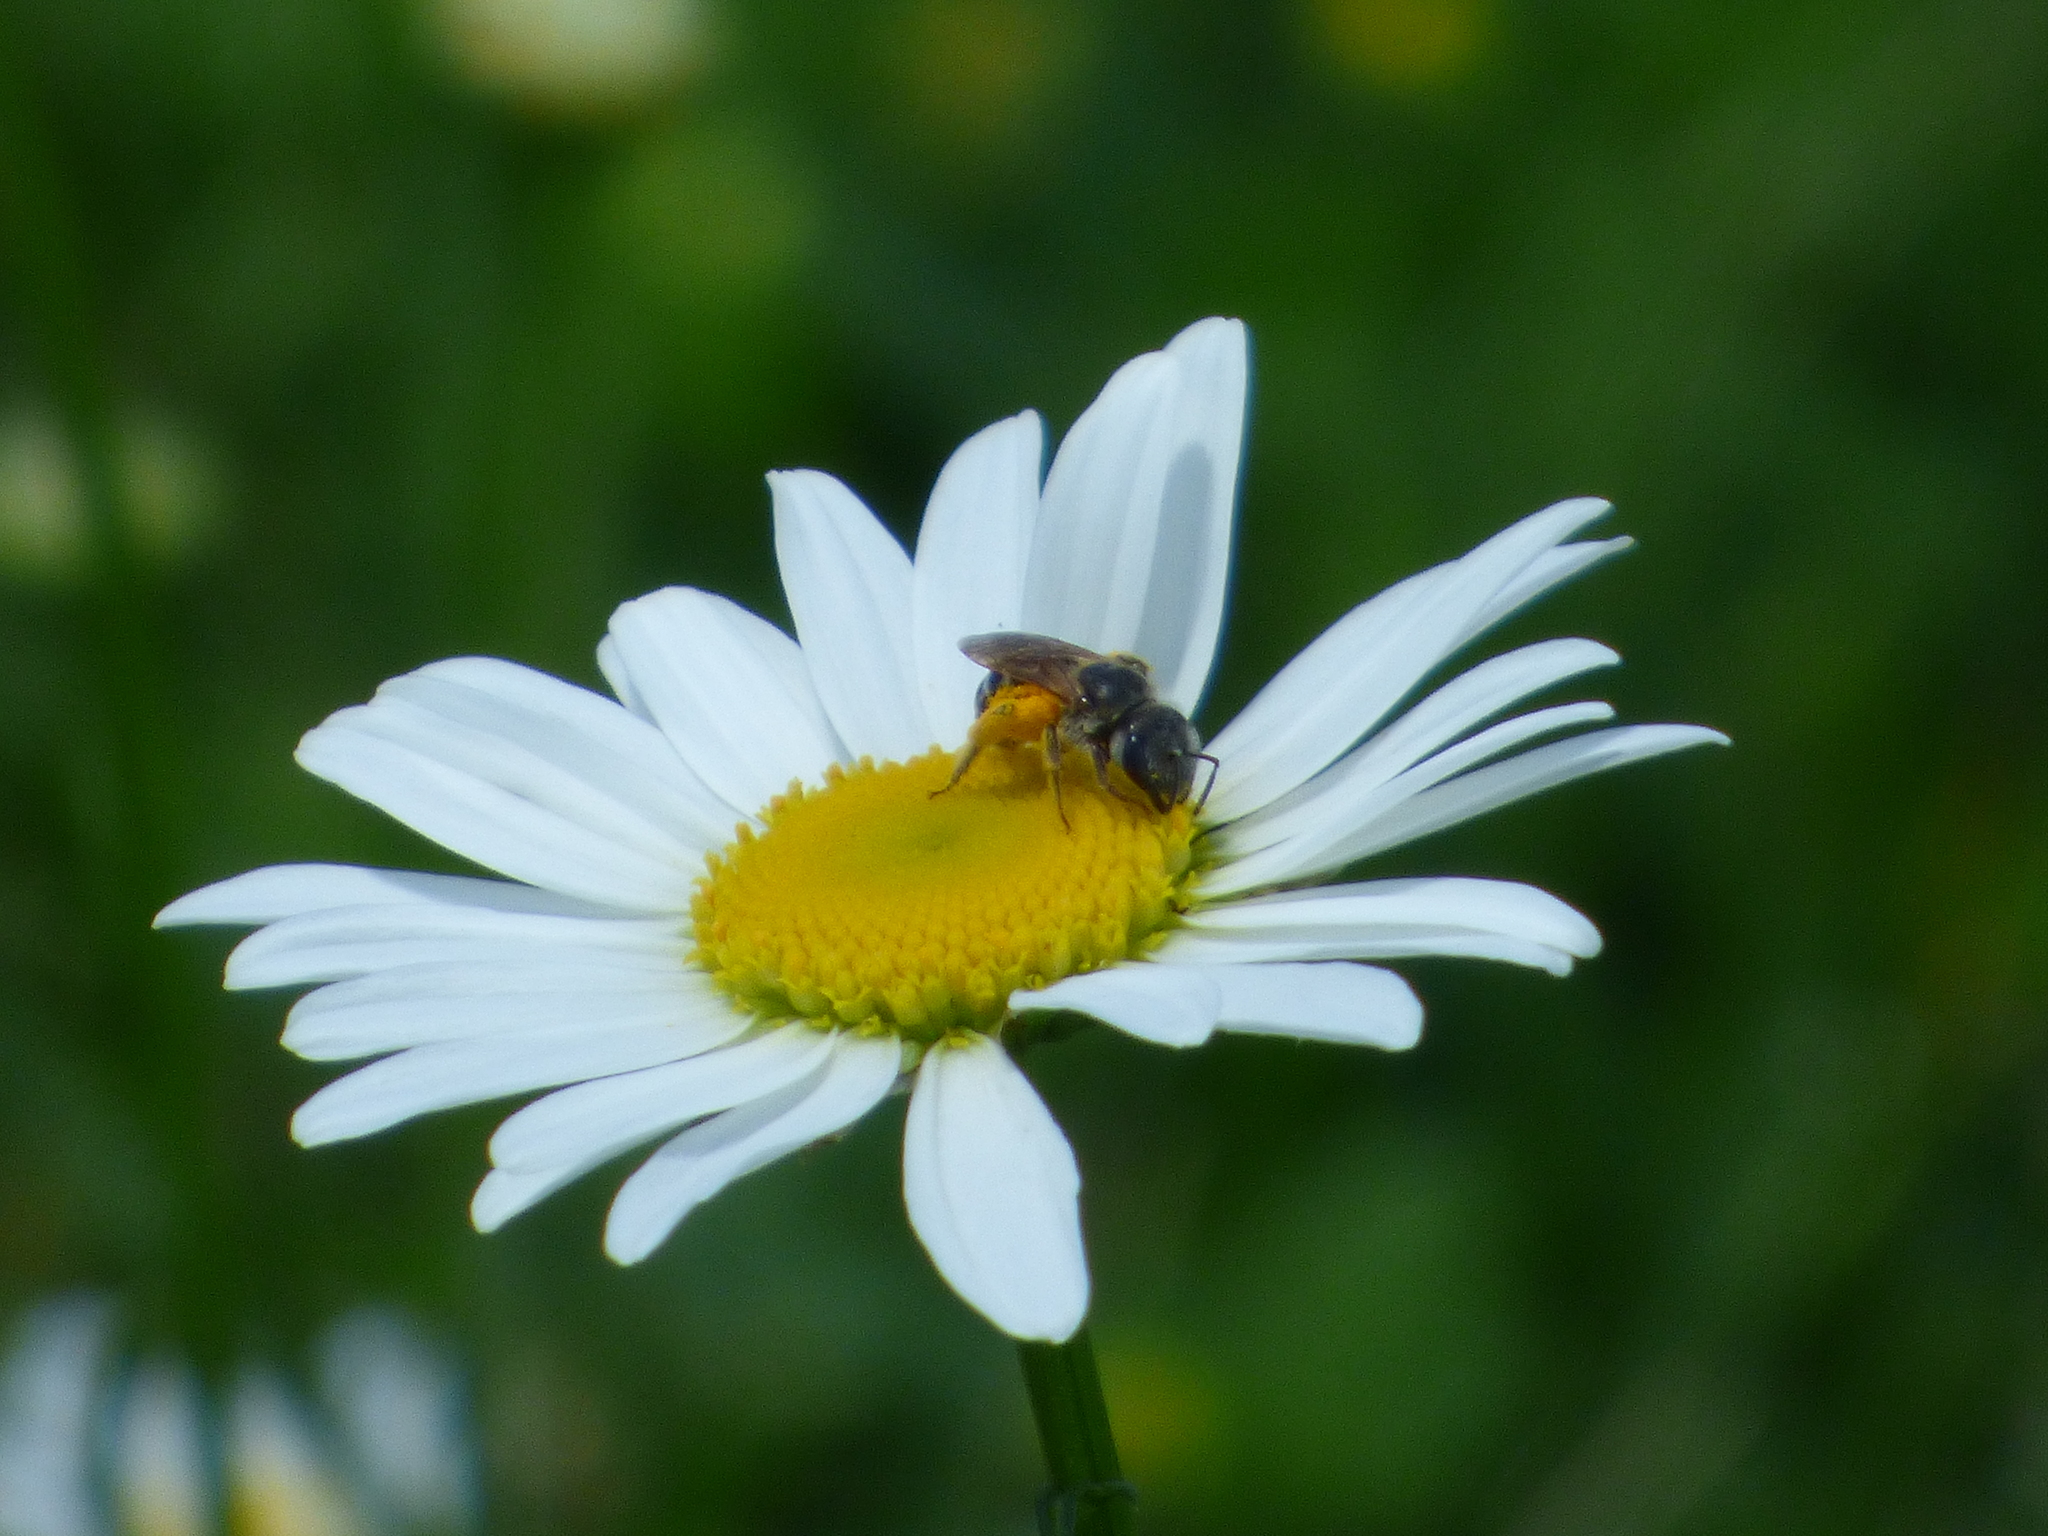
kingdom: Animalia
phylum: Arthropoda
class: Insecta
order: Hymenoptera
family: Halictidae
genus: Halictus
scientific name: Halictus ligatus
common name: Ligated furrow bee
